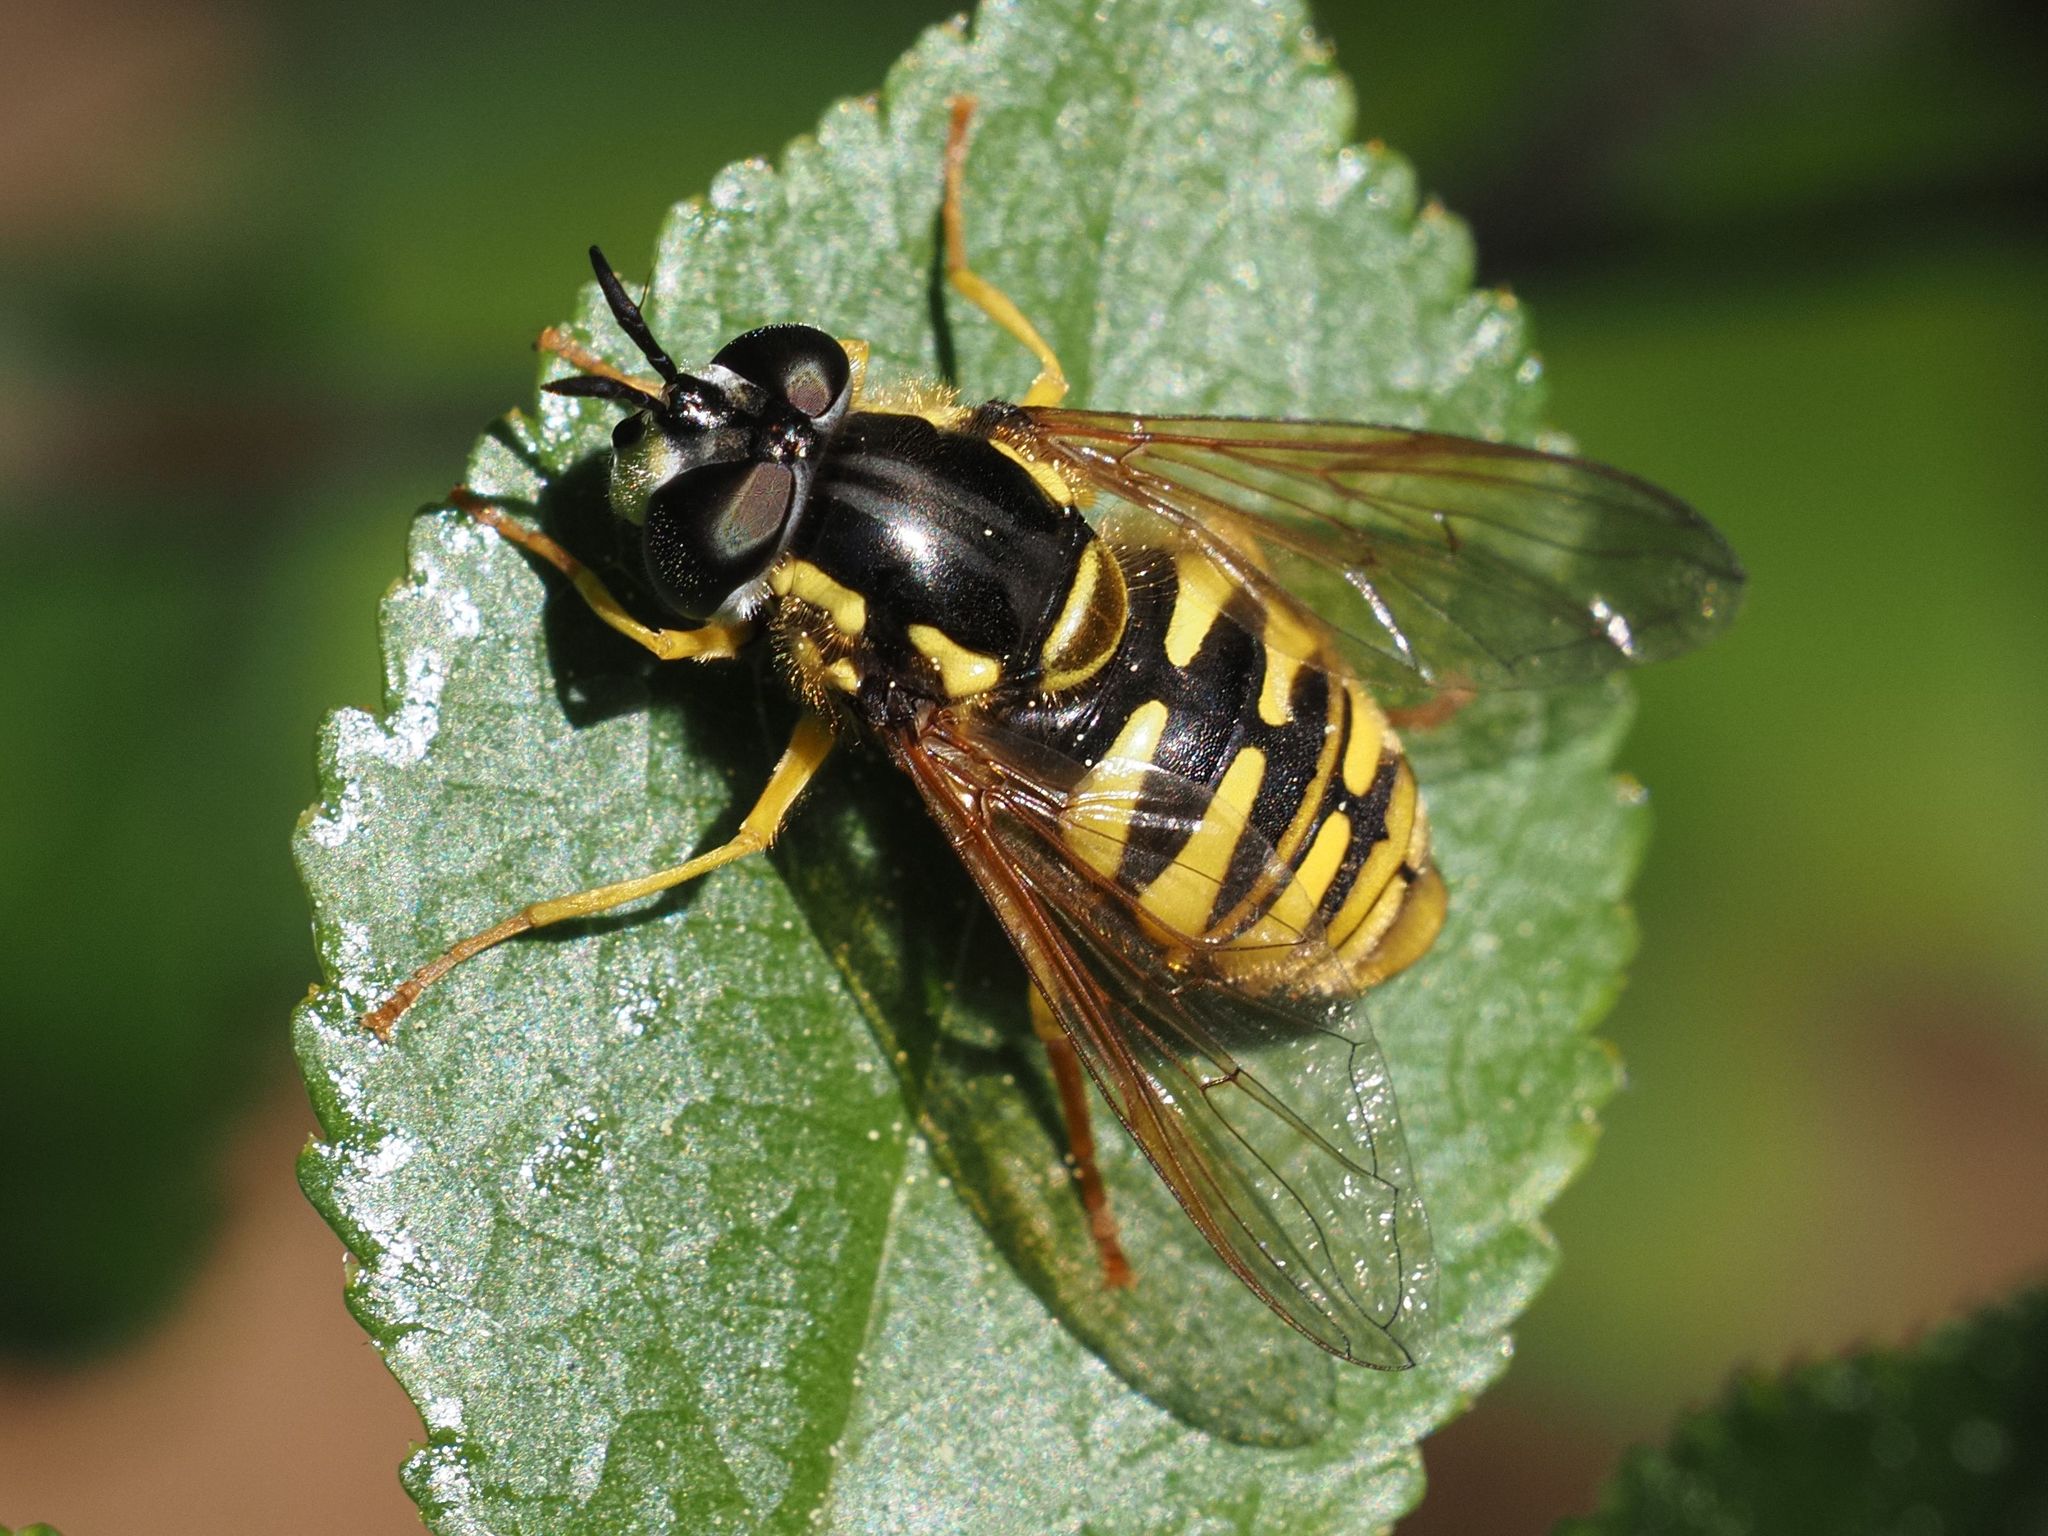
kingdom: Animalia
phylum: Arthropoda
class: Insecta
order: Diptera
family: Syrphidae
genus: Chrysotoxum
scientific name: Chrysotoxum cautum
